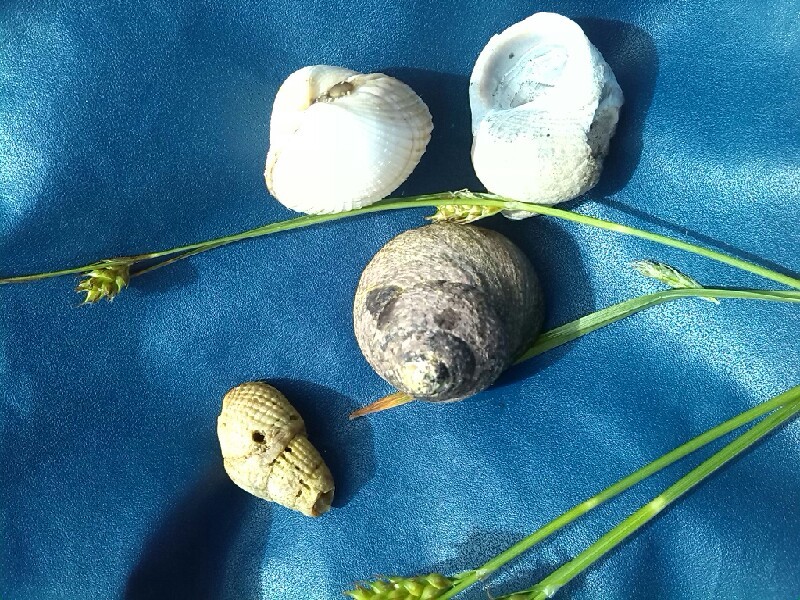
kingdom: Animalia
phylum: Mollusca
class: Gastropoda
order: Trochida
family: Trochidae
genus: Phorcus
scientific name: Phorcus lineatus
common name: Toothed top shell
